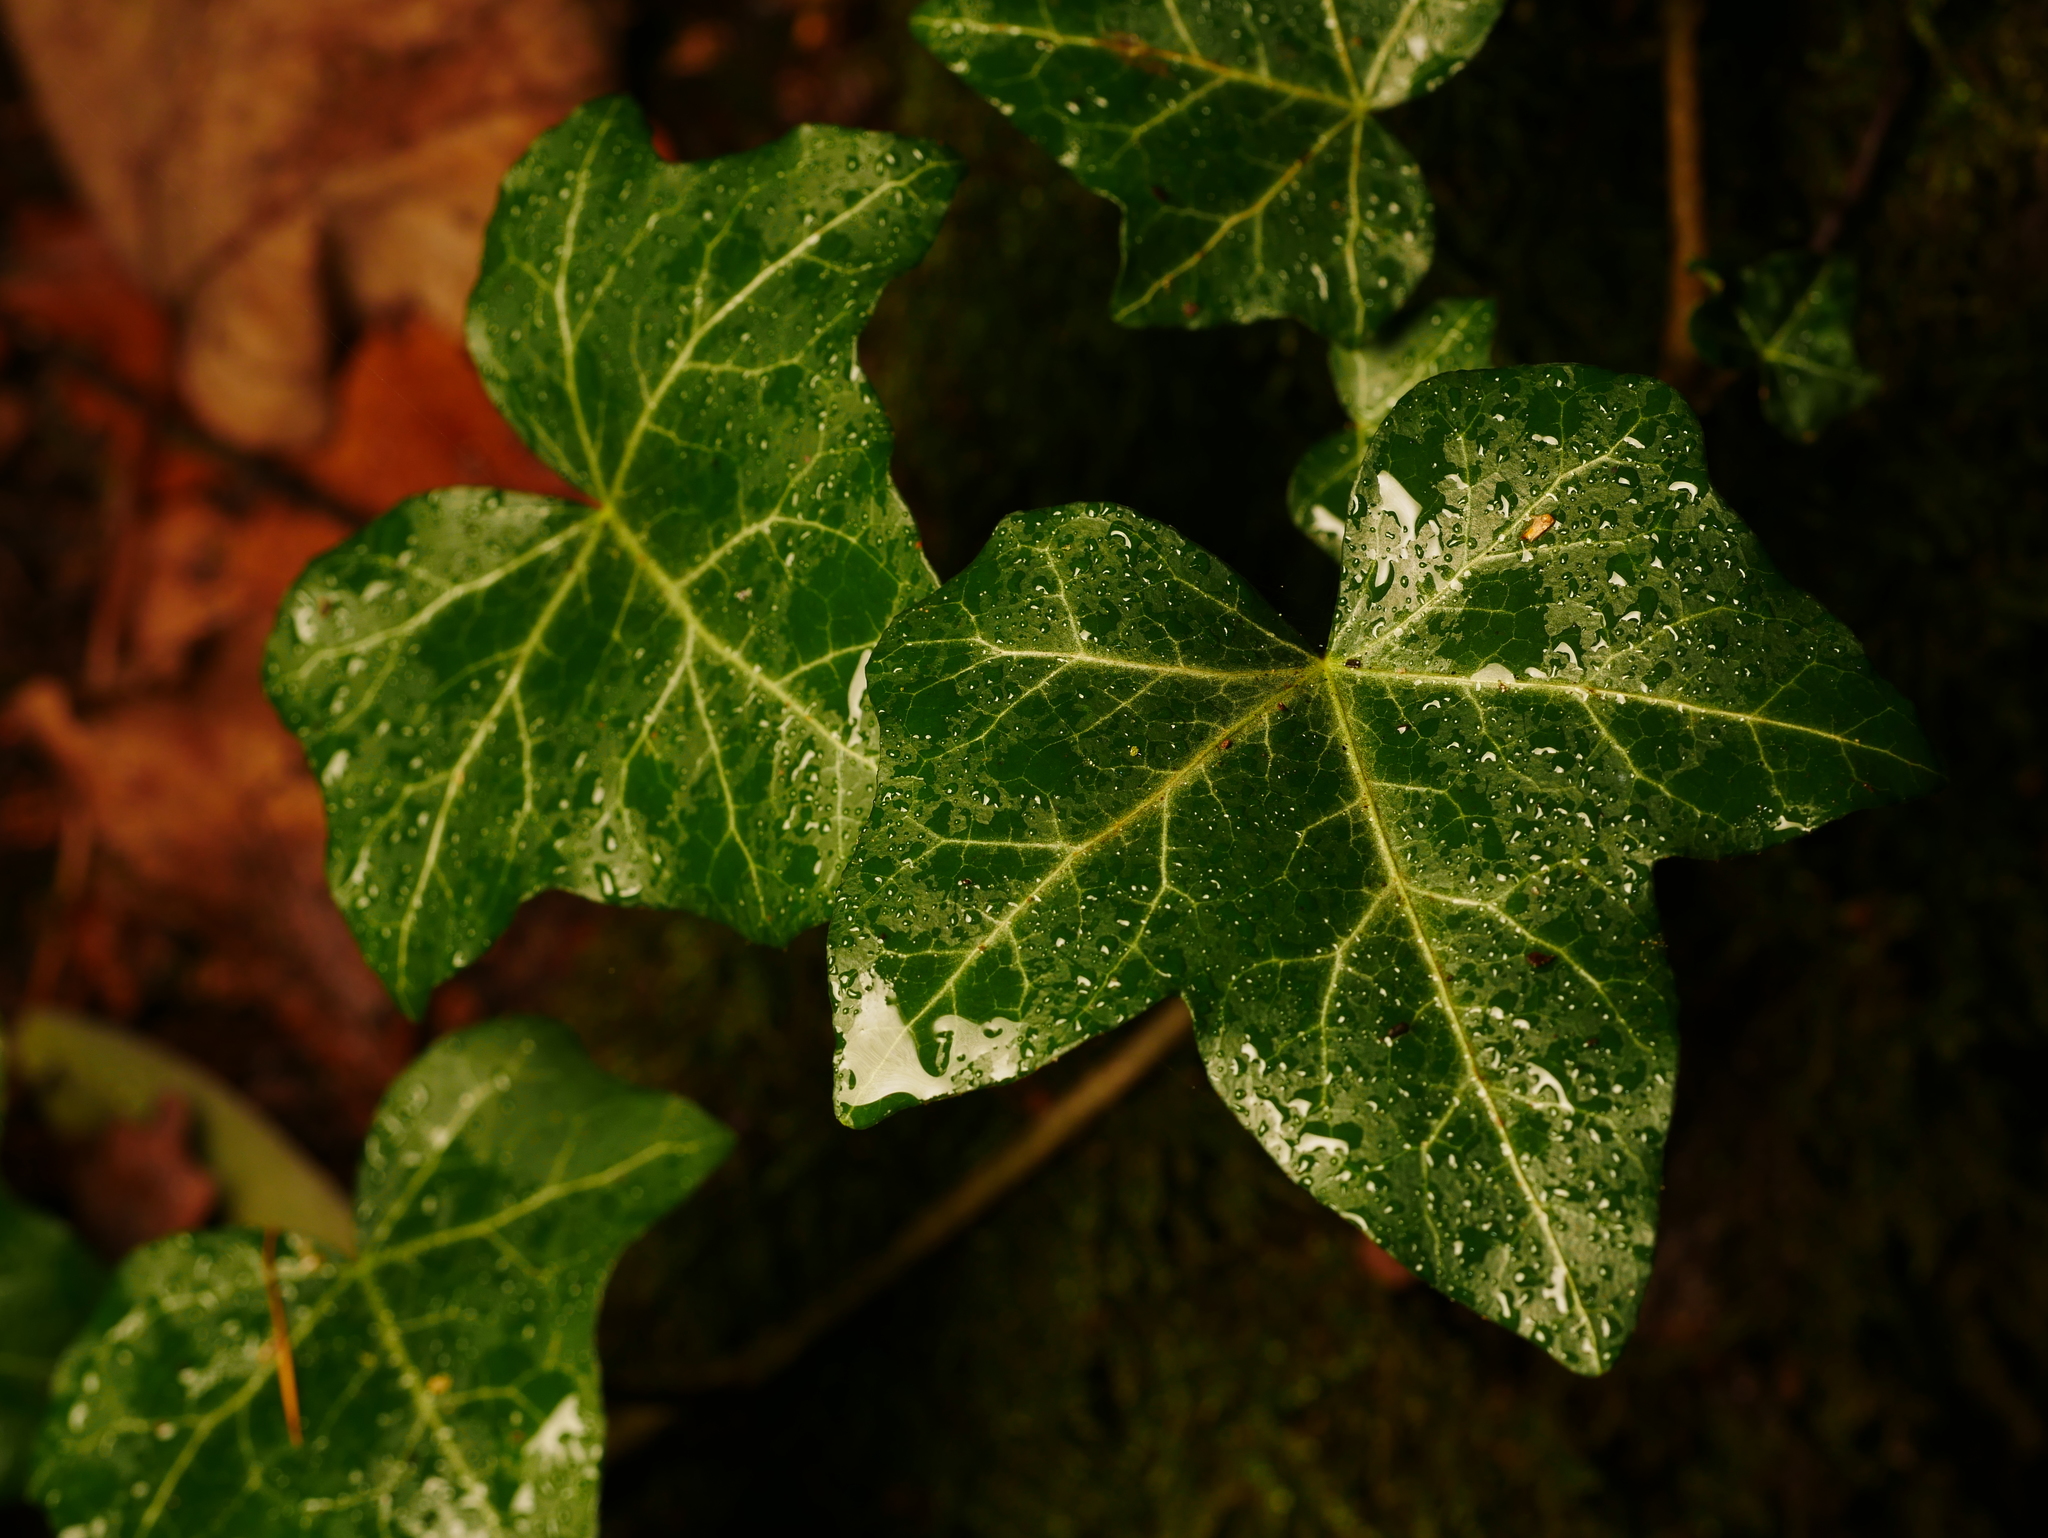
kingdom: Plantae
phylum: Tracheophyta
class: Magnoliopsida
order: Apiales
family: Araliaceae
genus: Hedera
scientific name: Hedera helix
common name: Ivy
